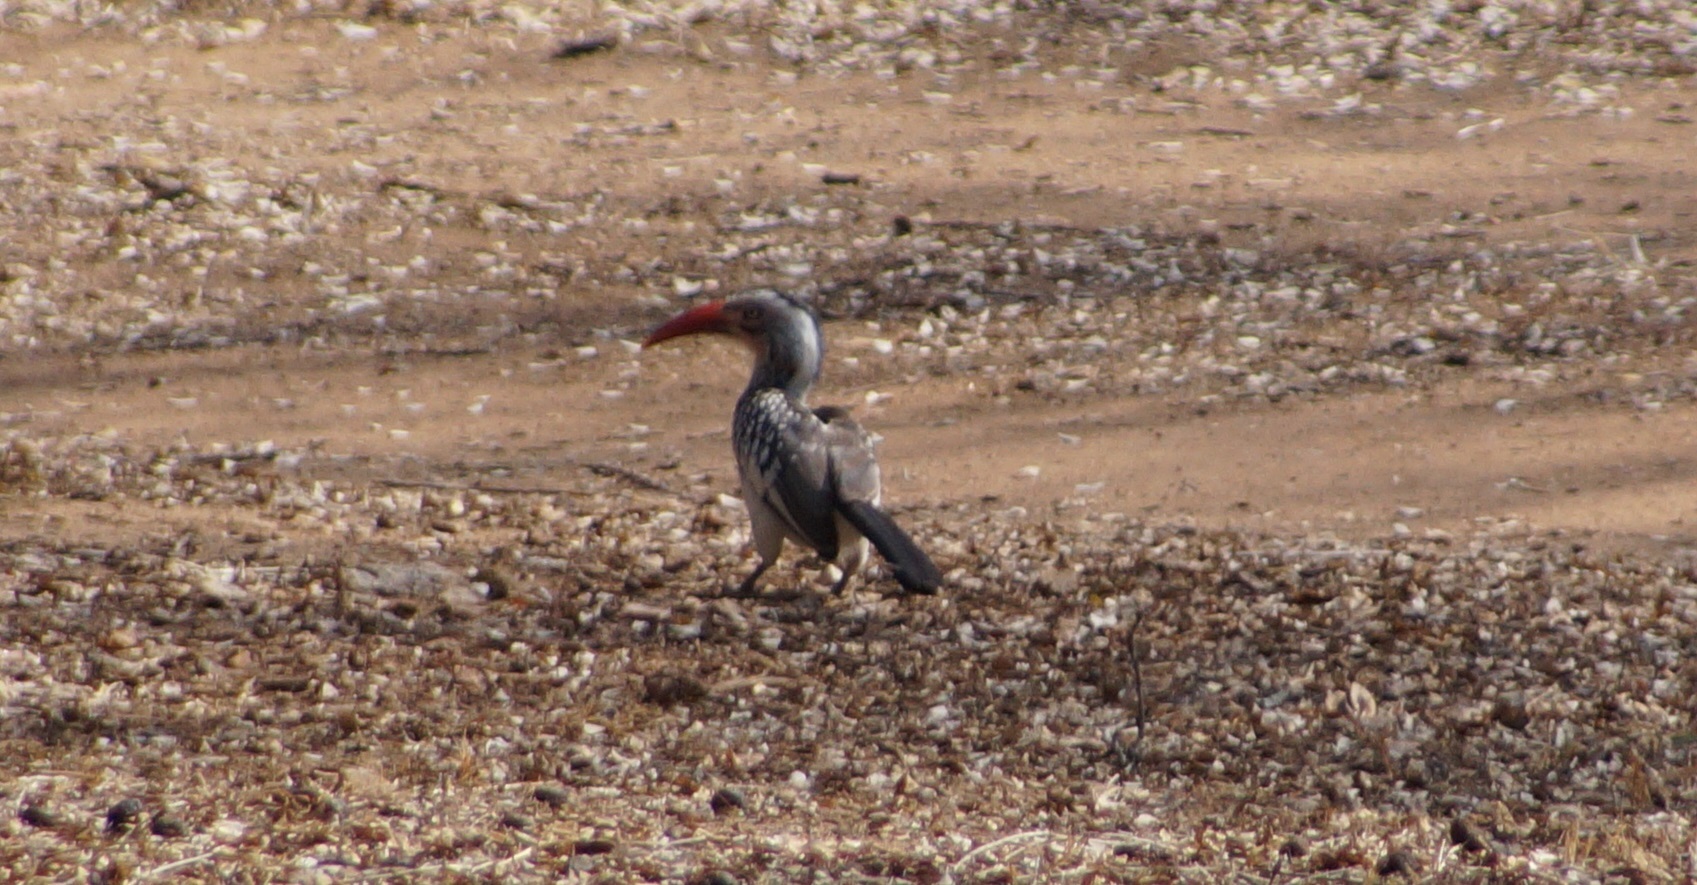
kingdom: Animalia
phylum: Chordata
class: Aves
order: Bucerotiformes
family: Bucerotidae
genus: Tockus
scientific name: Tockus rufirostris
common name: Southern red-billed hornbill
